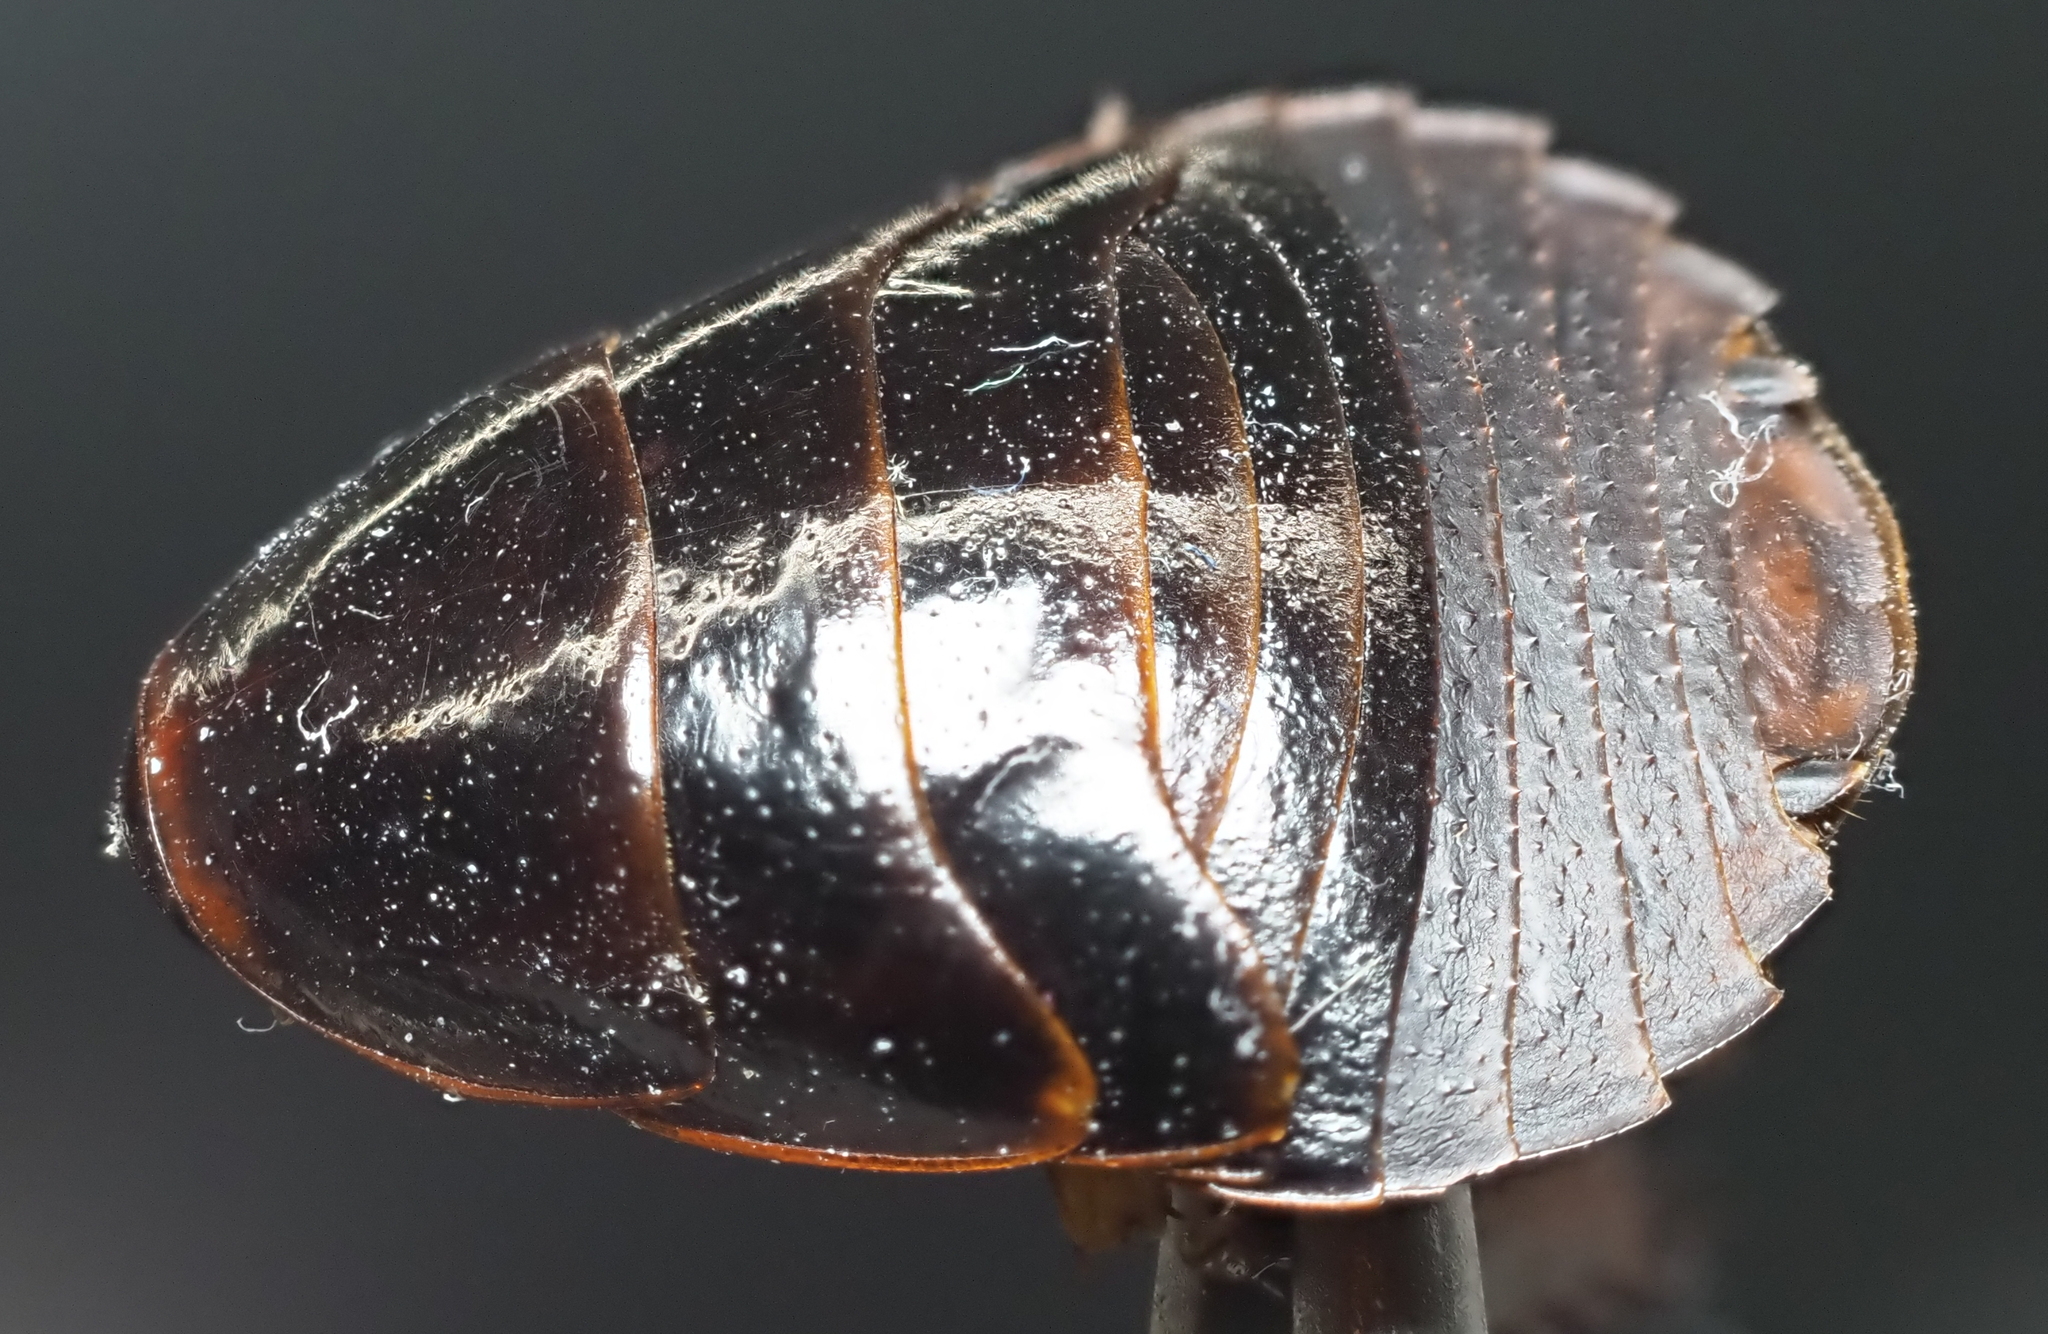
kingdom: Animalia
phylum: Arthropoda
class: Insecta
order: Blattodea
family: Blaberidae
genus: Pycnoscelus
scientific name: Pycnoscelus surinamensis
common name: Surinam cockroach
